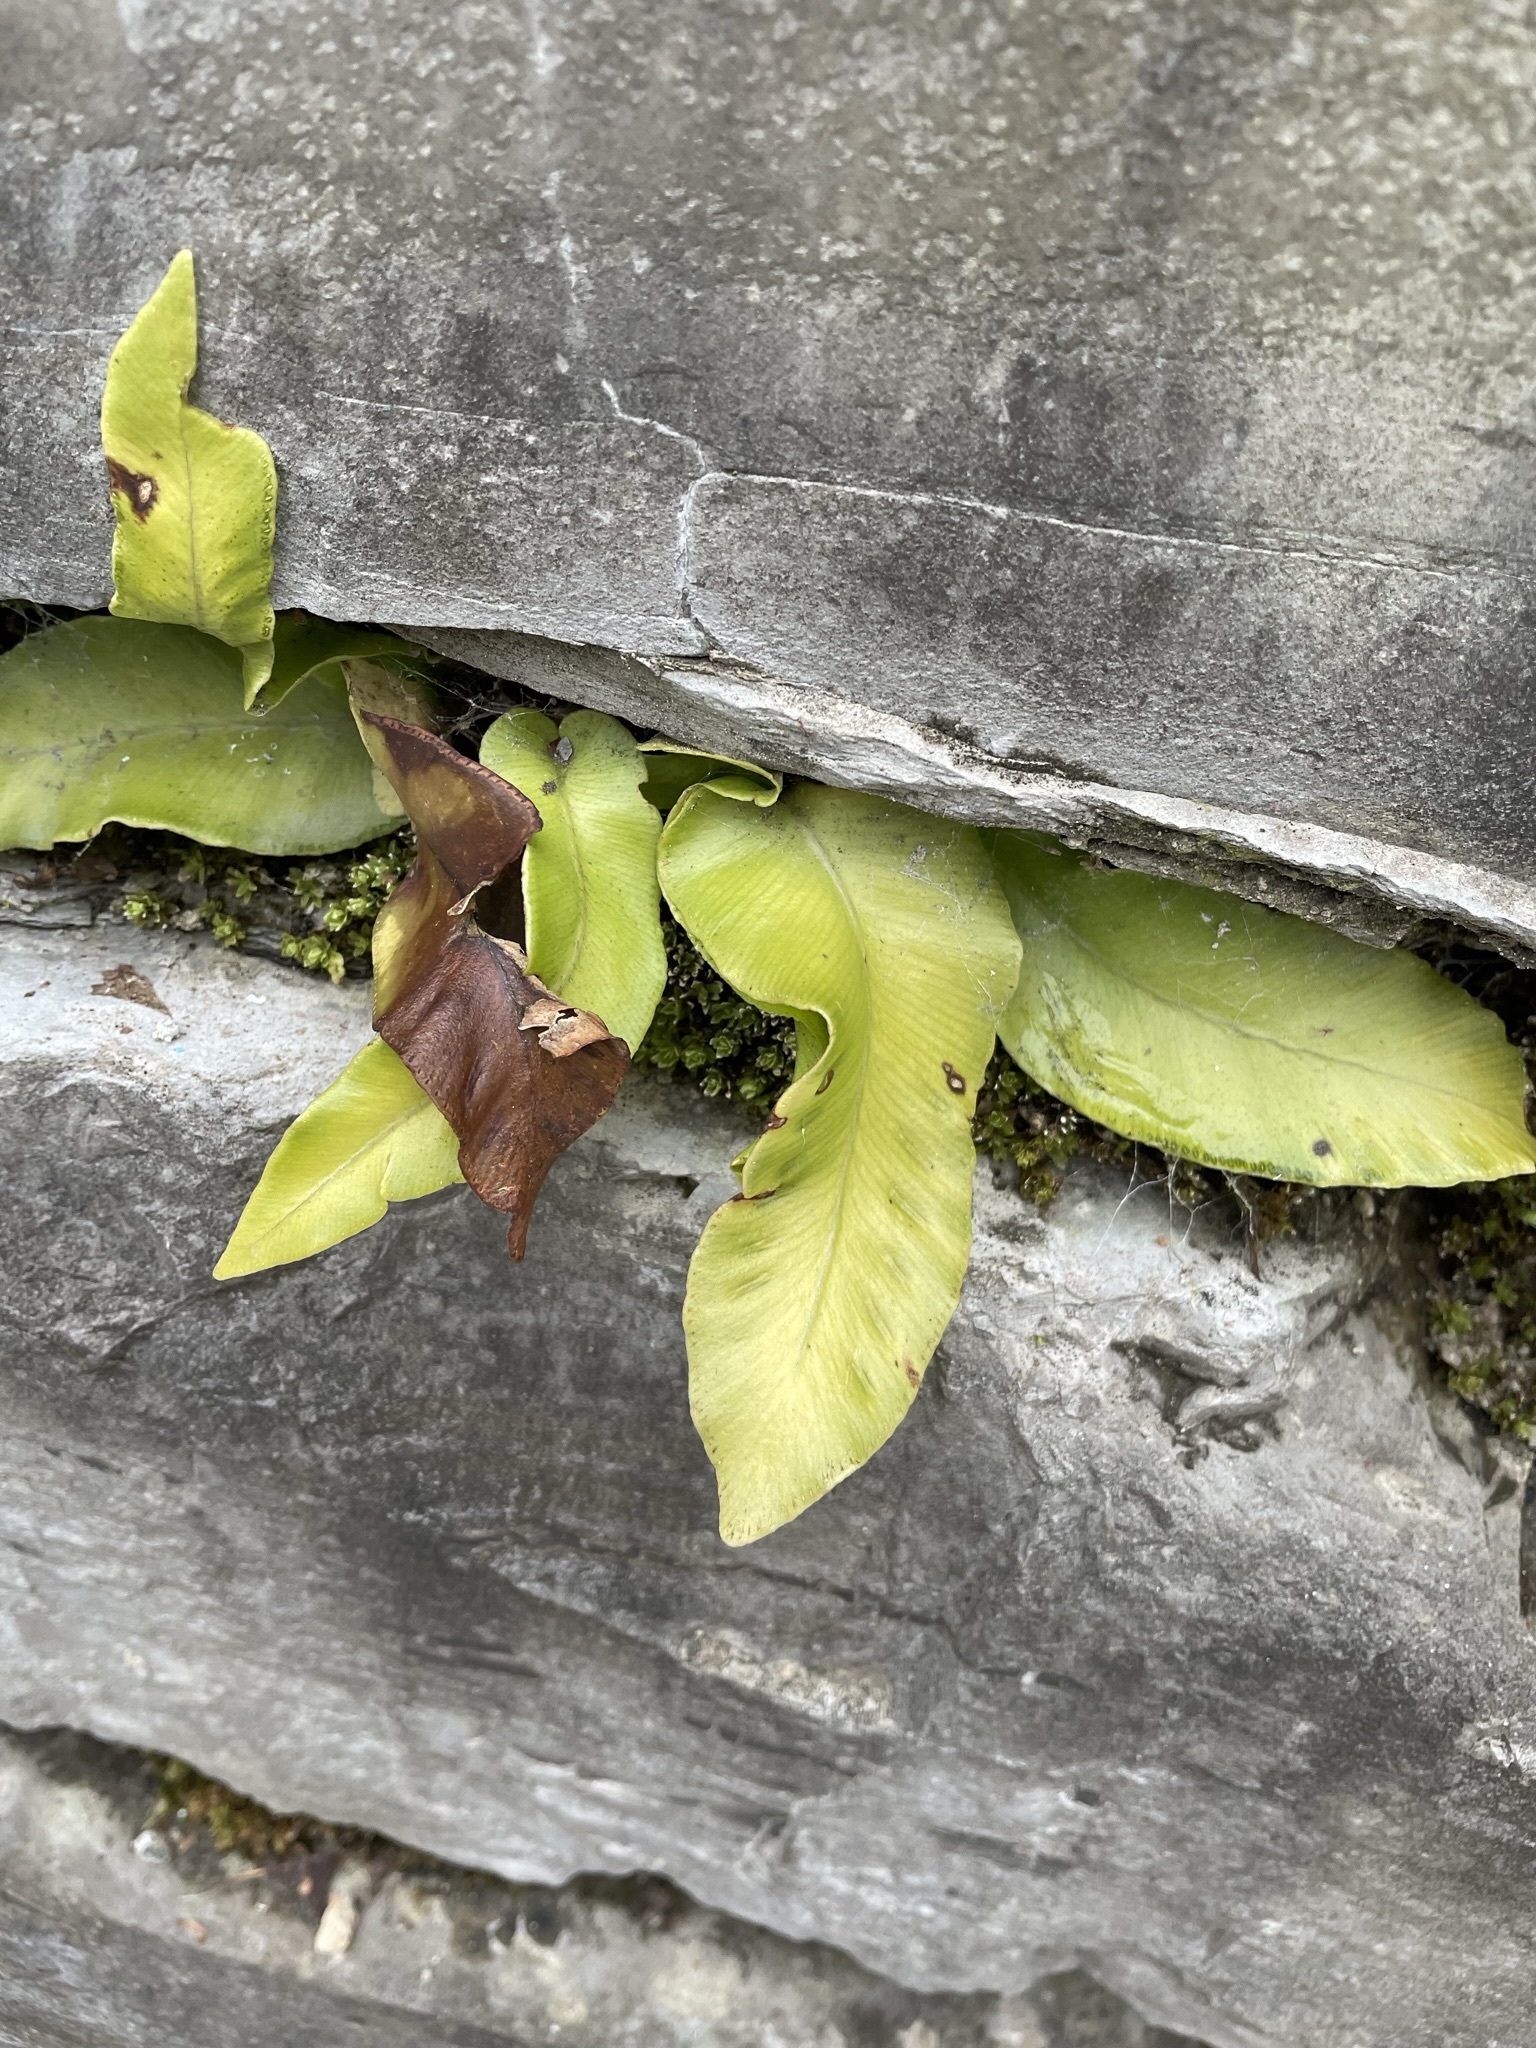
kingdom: Plantae
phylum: Tracheophyta
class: Polypodiopsida
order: Polypodiales
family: Aspleniaceae
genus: Asplenium
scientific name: Asplenium scolopendrium
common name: Hart's-tongue fern
